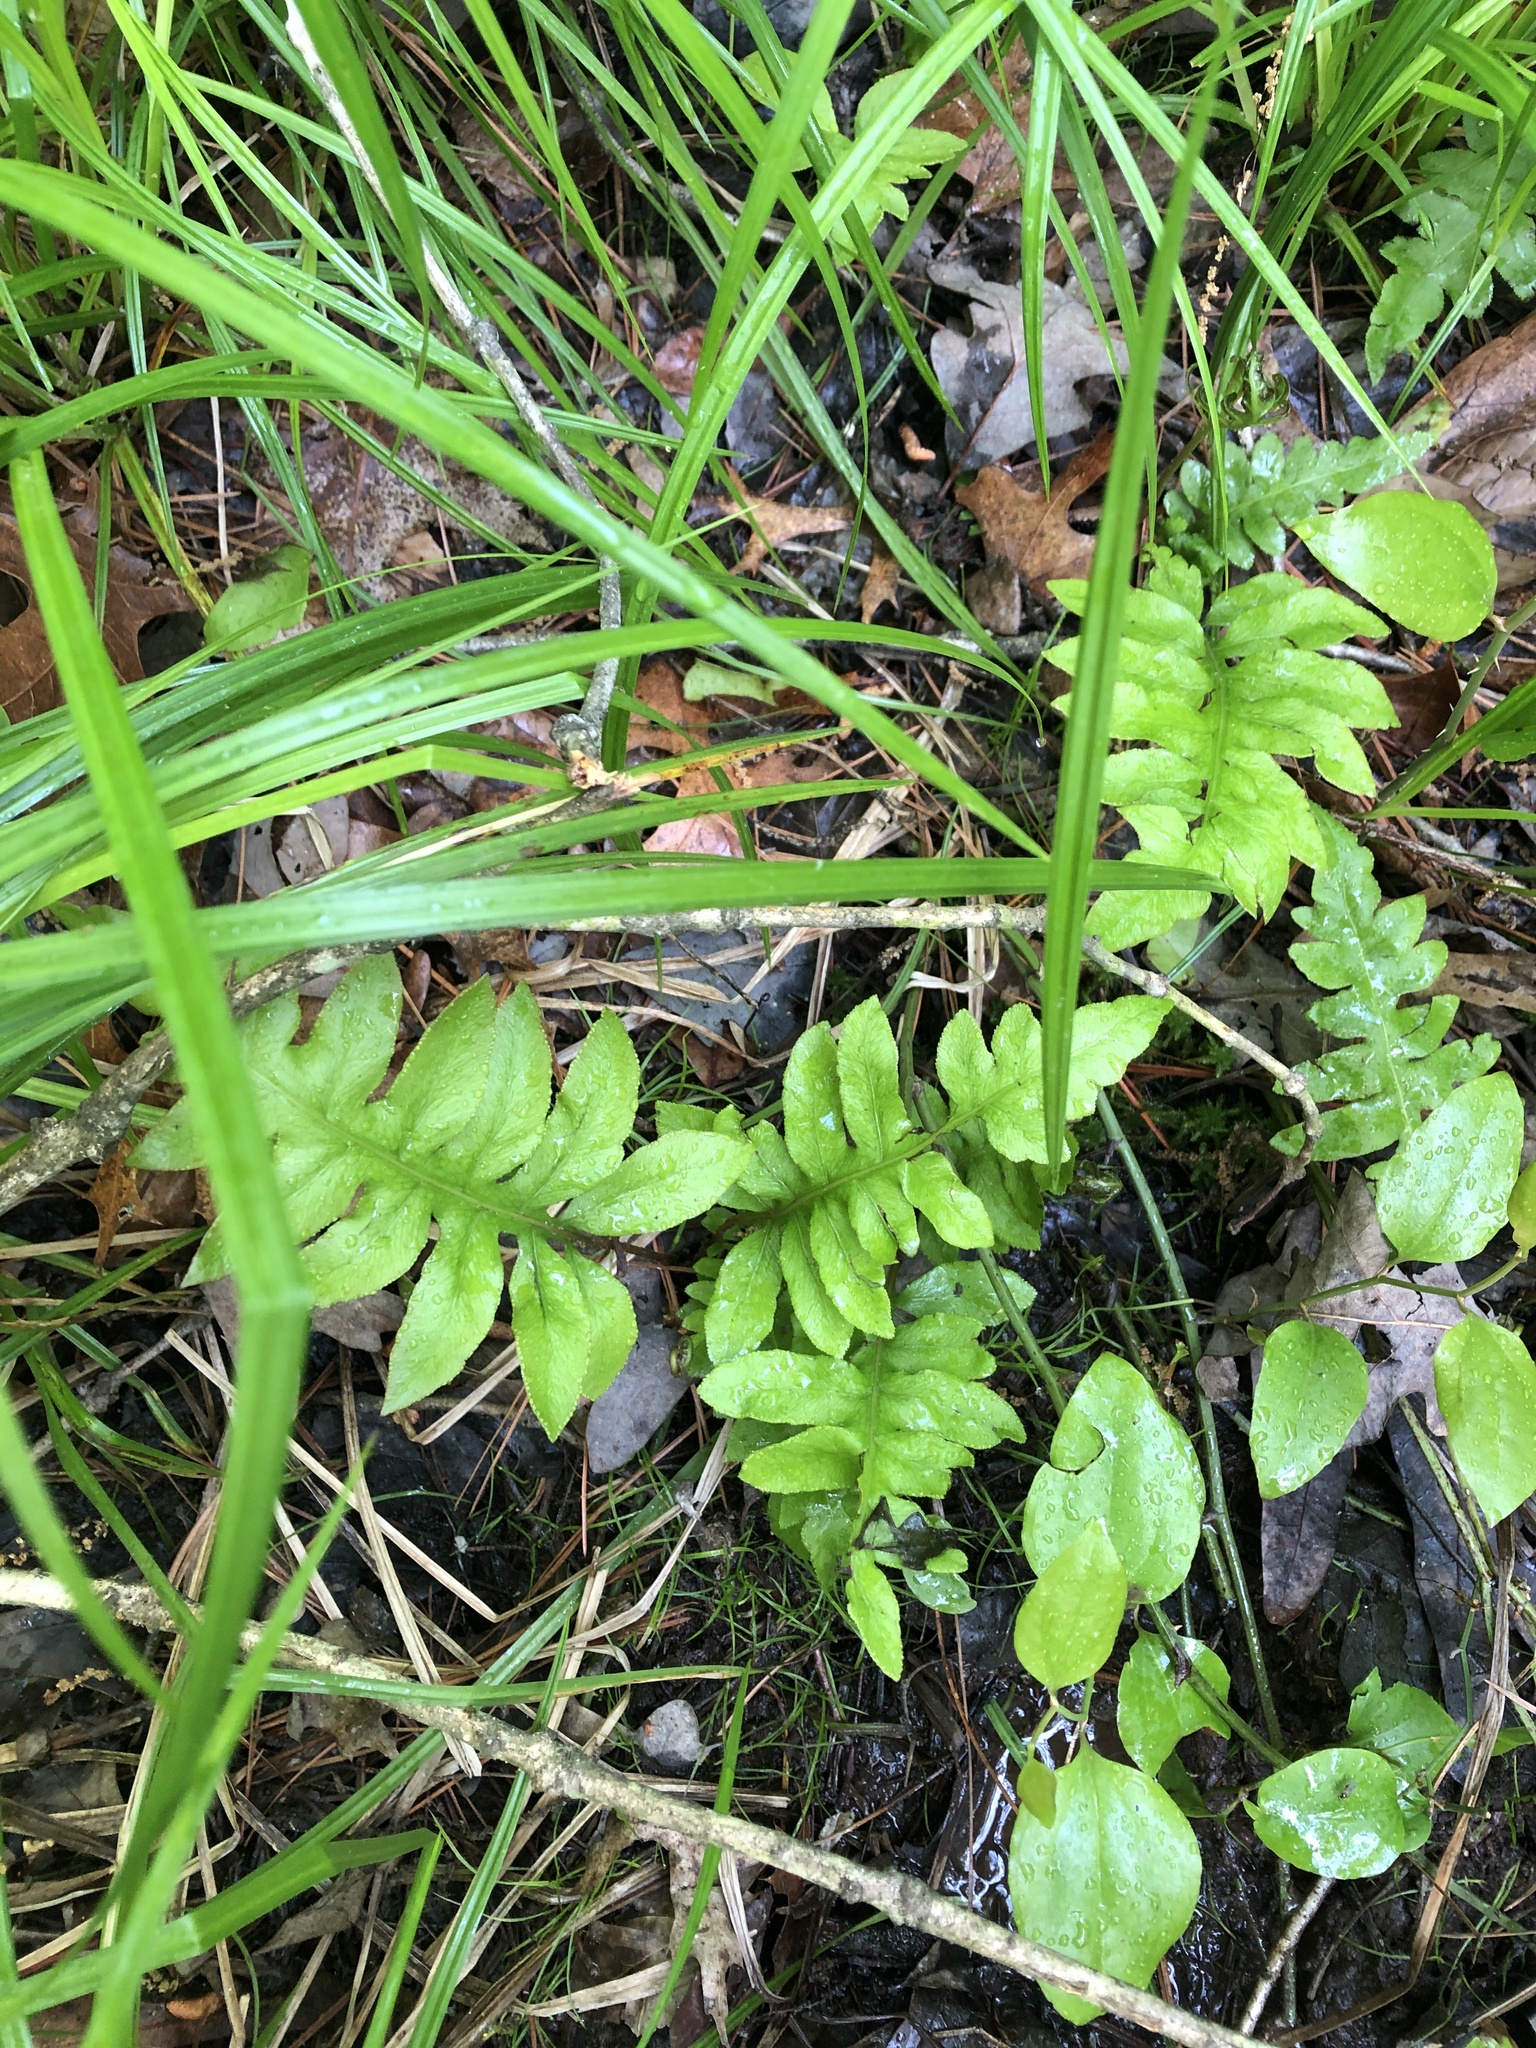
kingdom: Plantae
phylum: Tracheophyta
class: Polypodiopsida
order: Polypodiales
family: Blechnaceae
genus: Lorinseria
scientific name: Lorinseria areolata
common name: Dwarf chain fern
